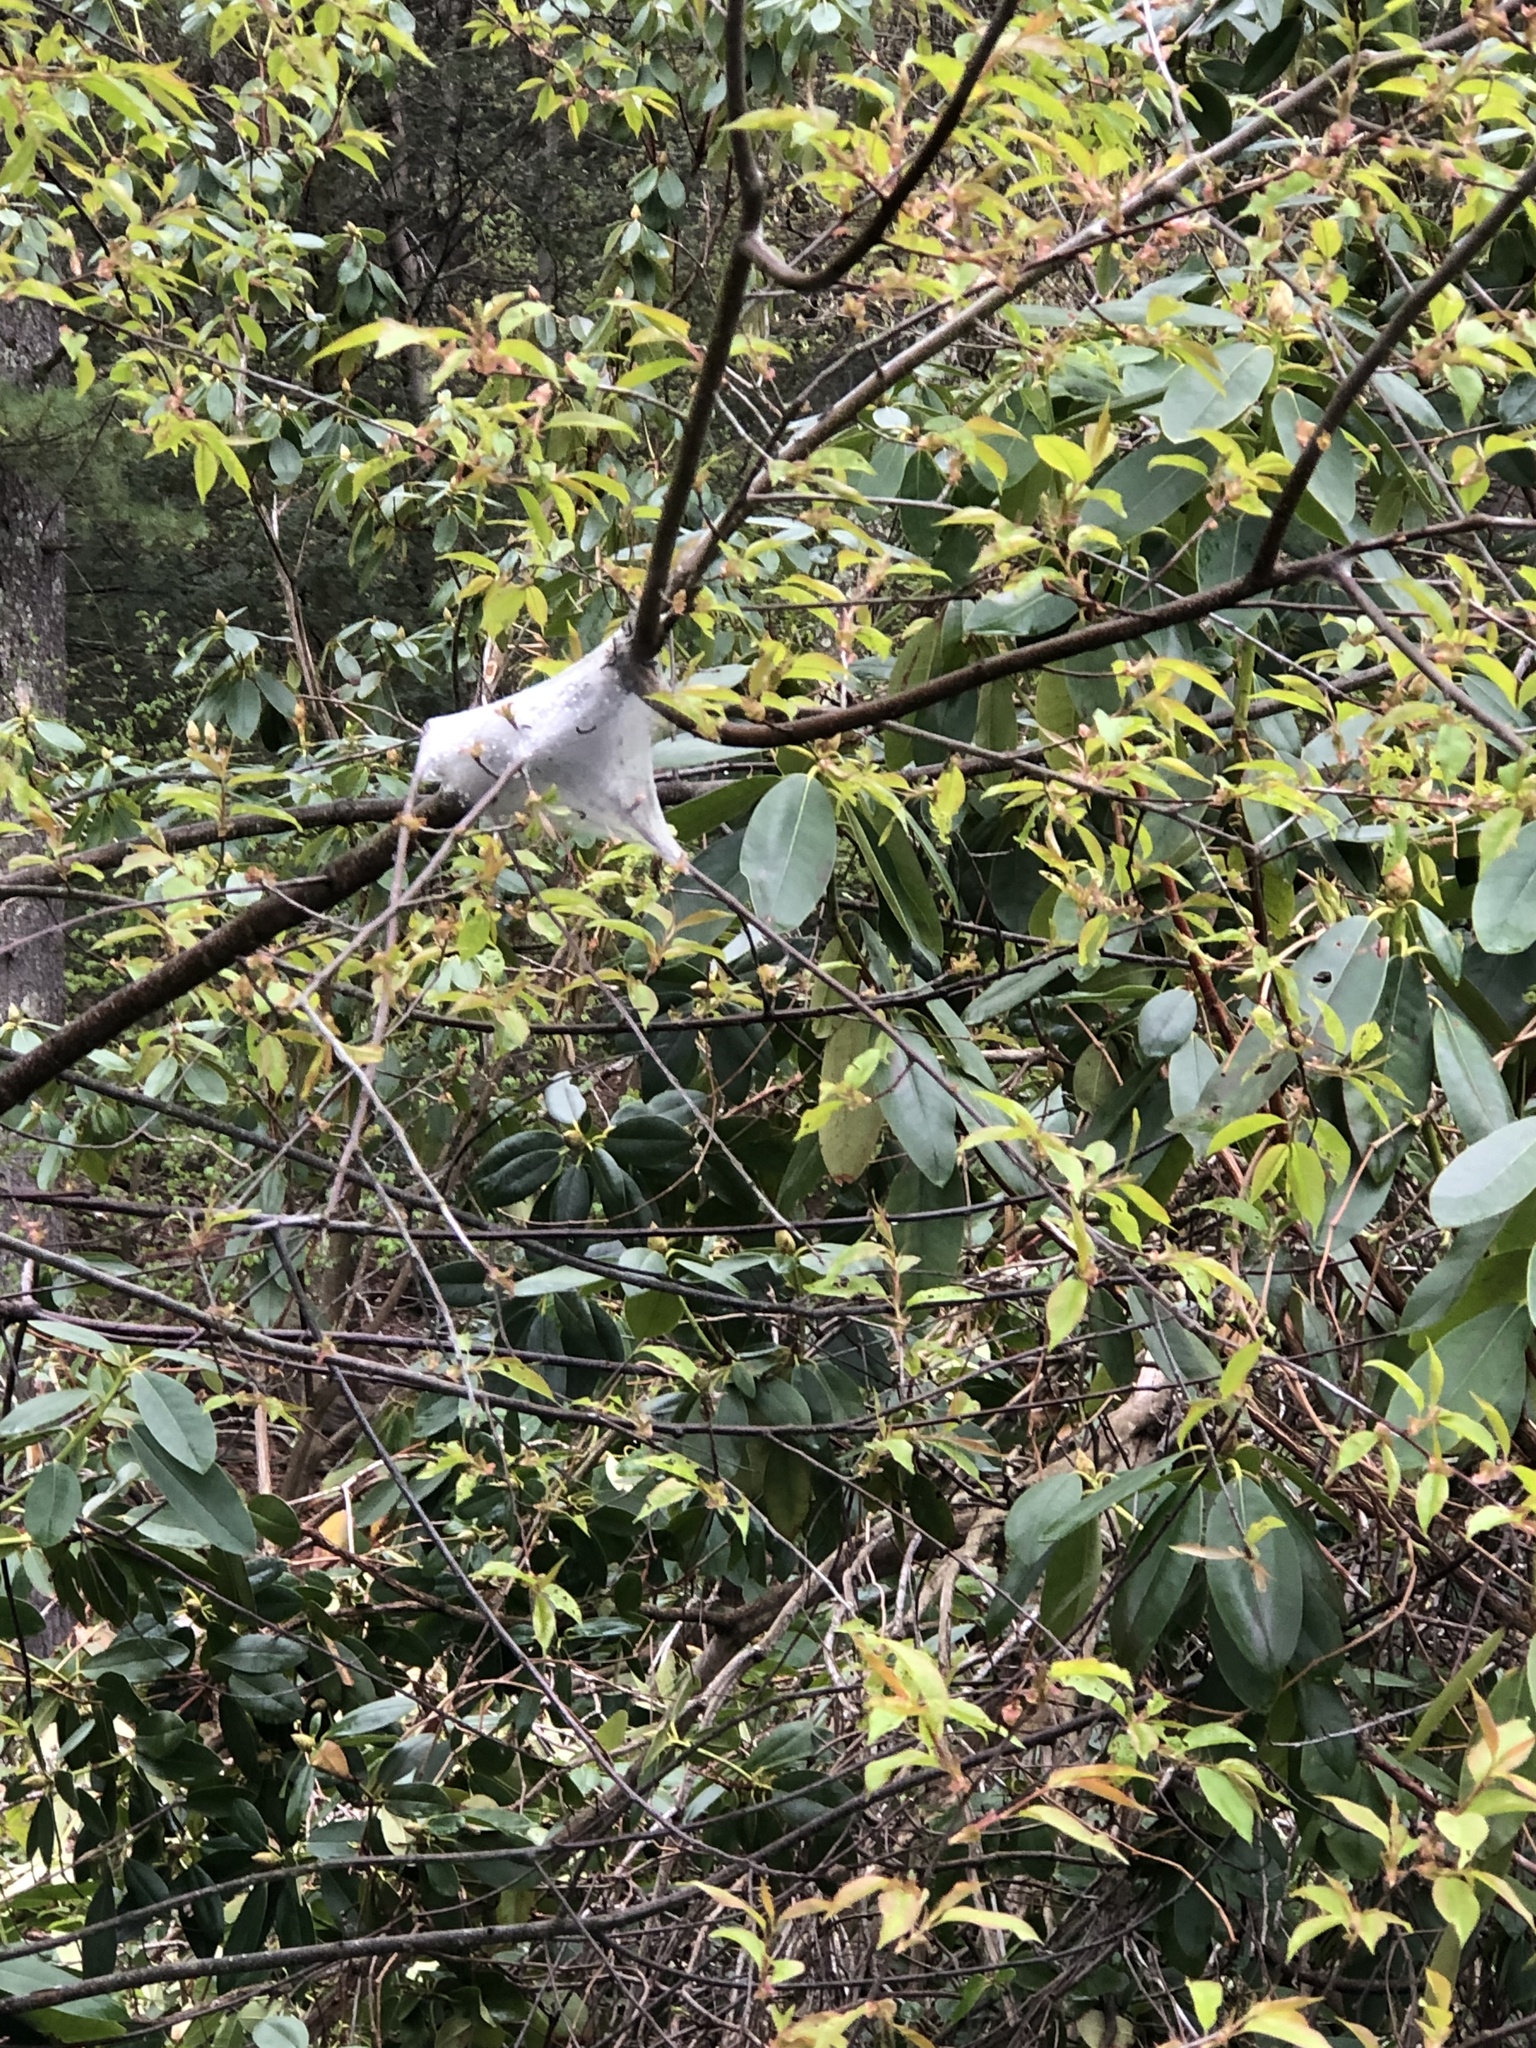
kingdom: Animalia
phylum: Arthropoda
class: Insecta
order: Lepidoptera
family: Lasiocampidae
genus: Malacosoma
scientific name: Malacosoma americana
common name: Eastern tent caterpillar moth
